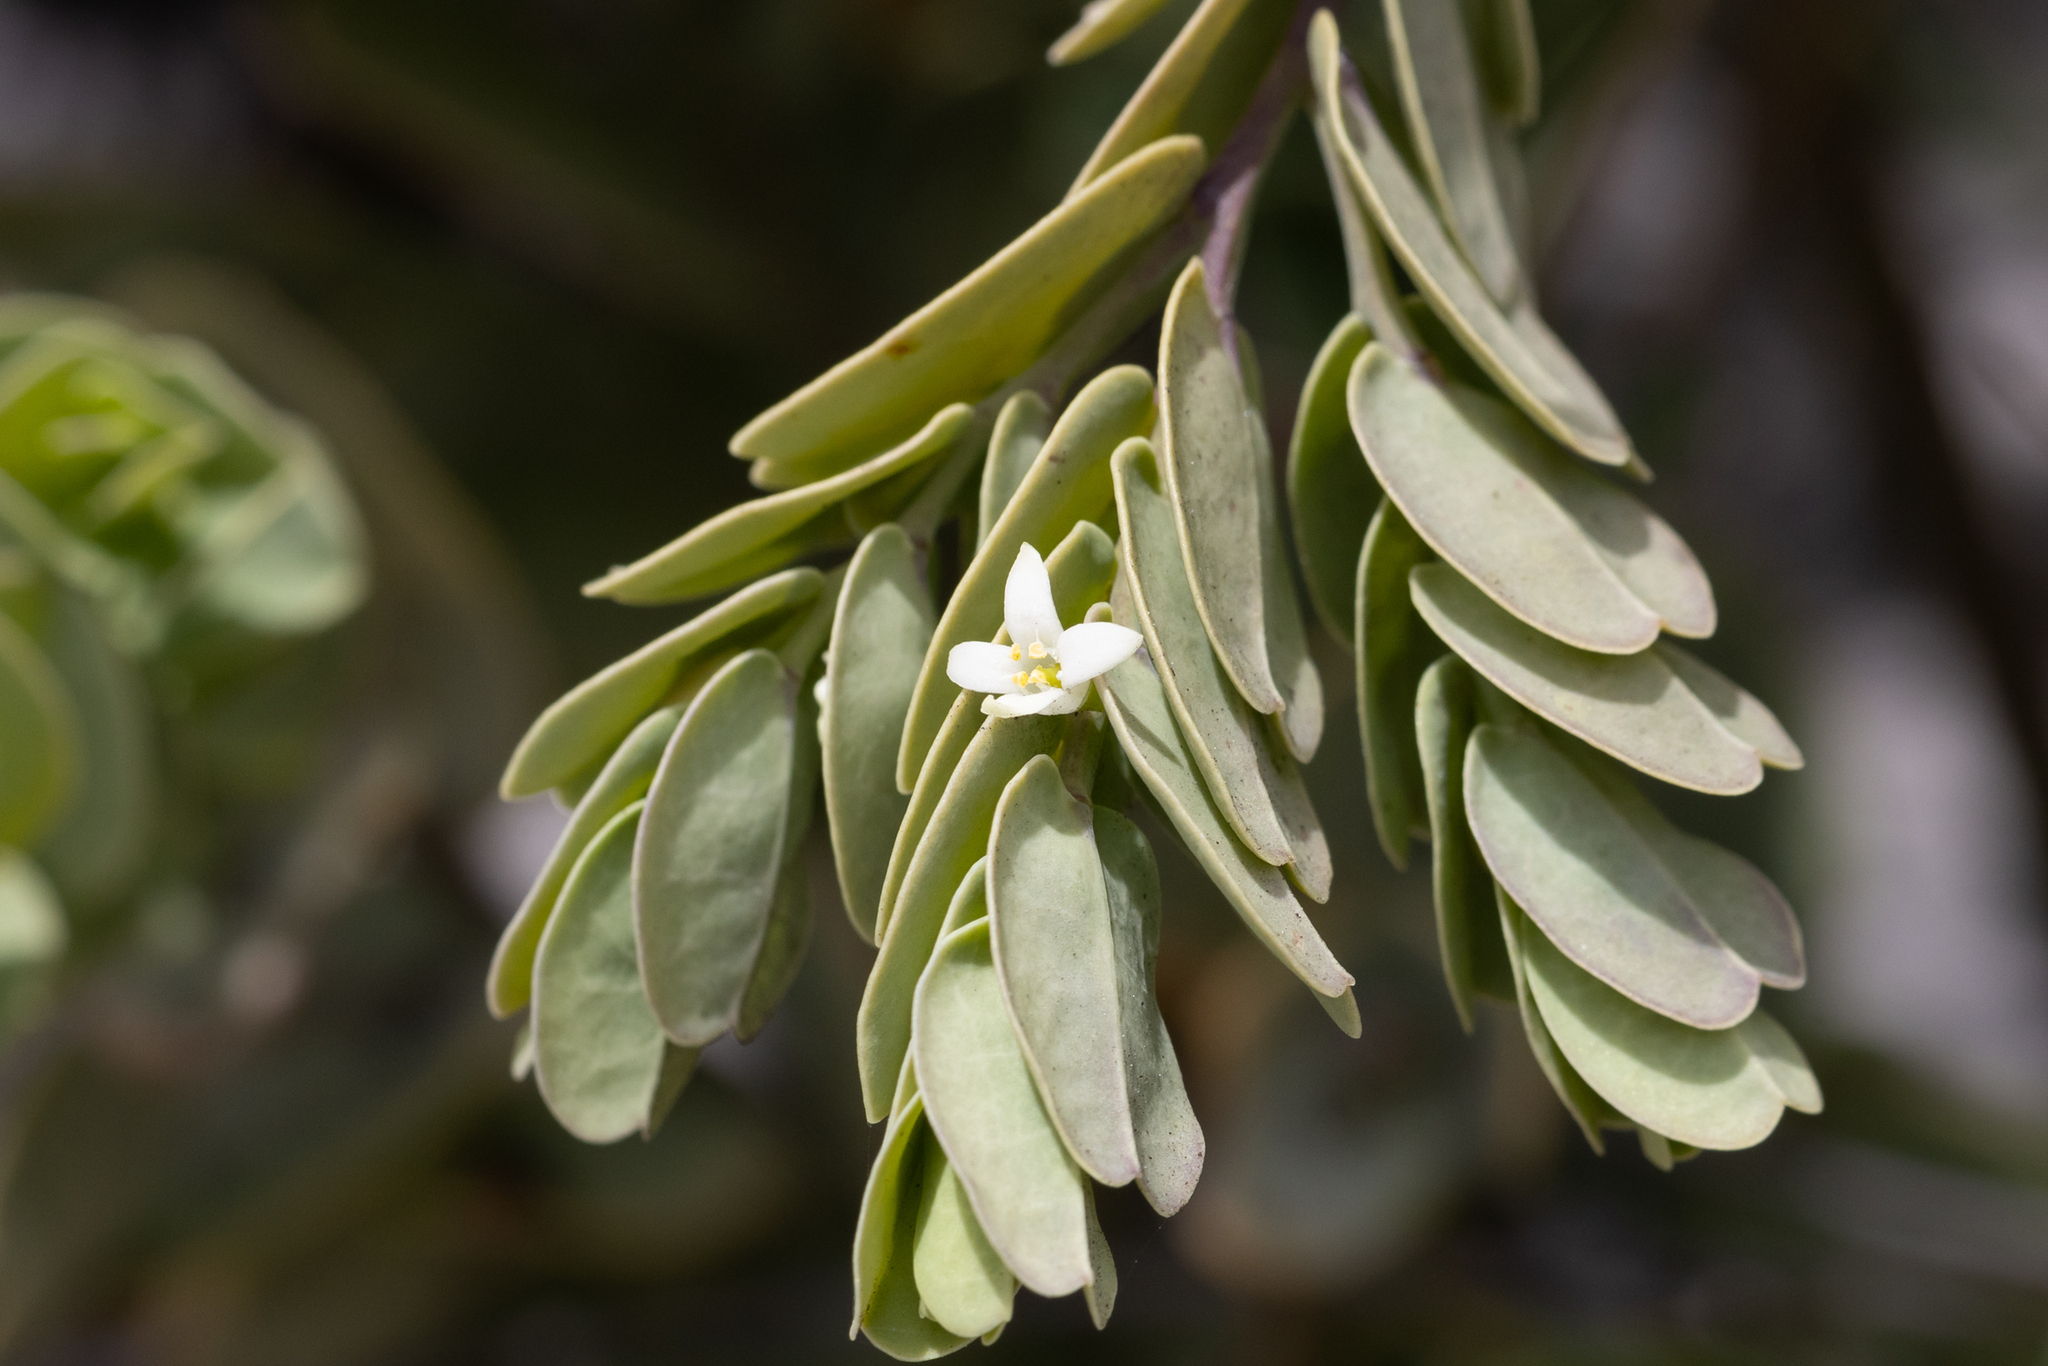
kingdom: Plantae
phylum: Tracheophyta
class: Magnoliopsida
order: Santalales
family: Olacaceae
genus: Olax
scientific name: Olax phyllanthi
